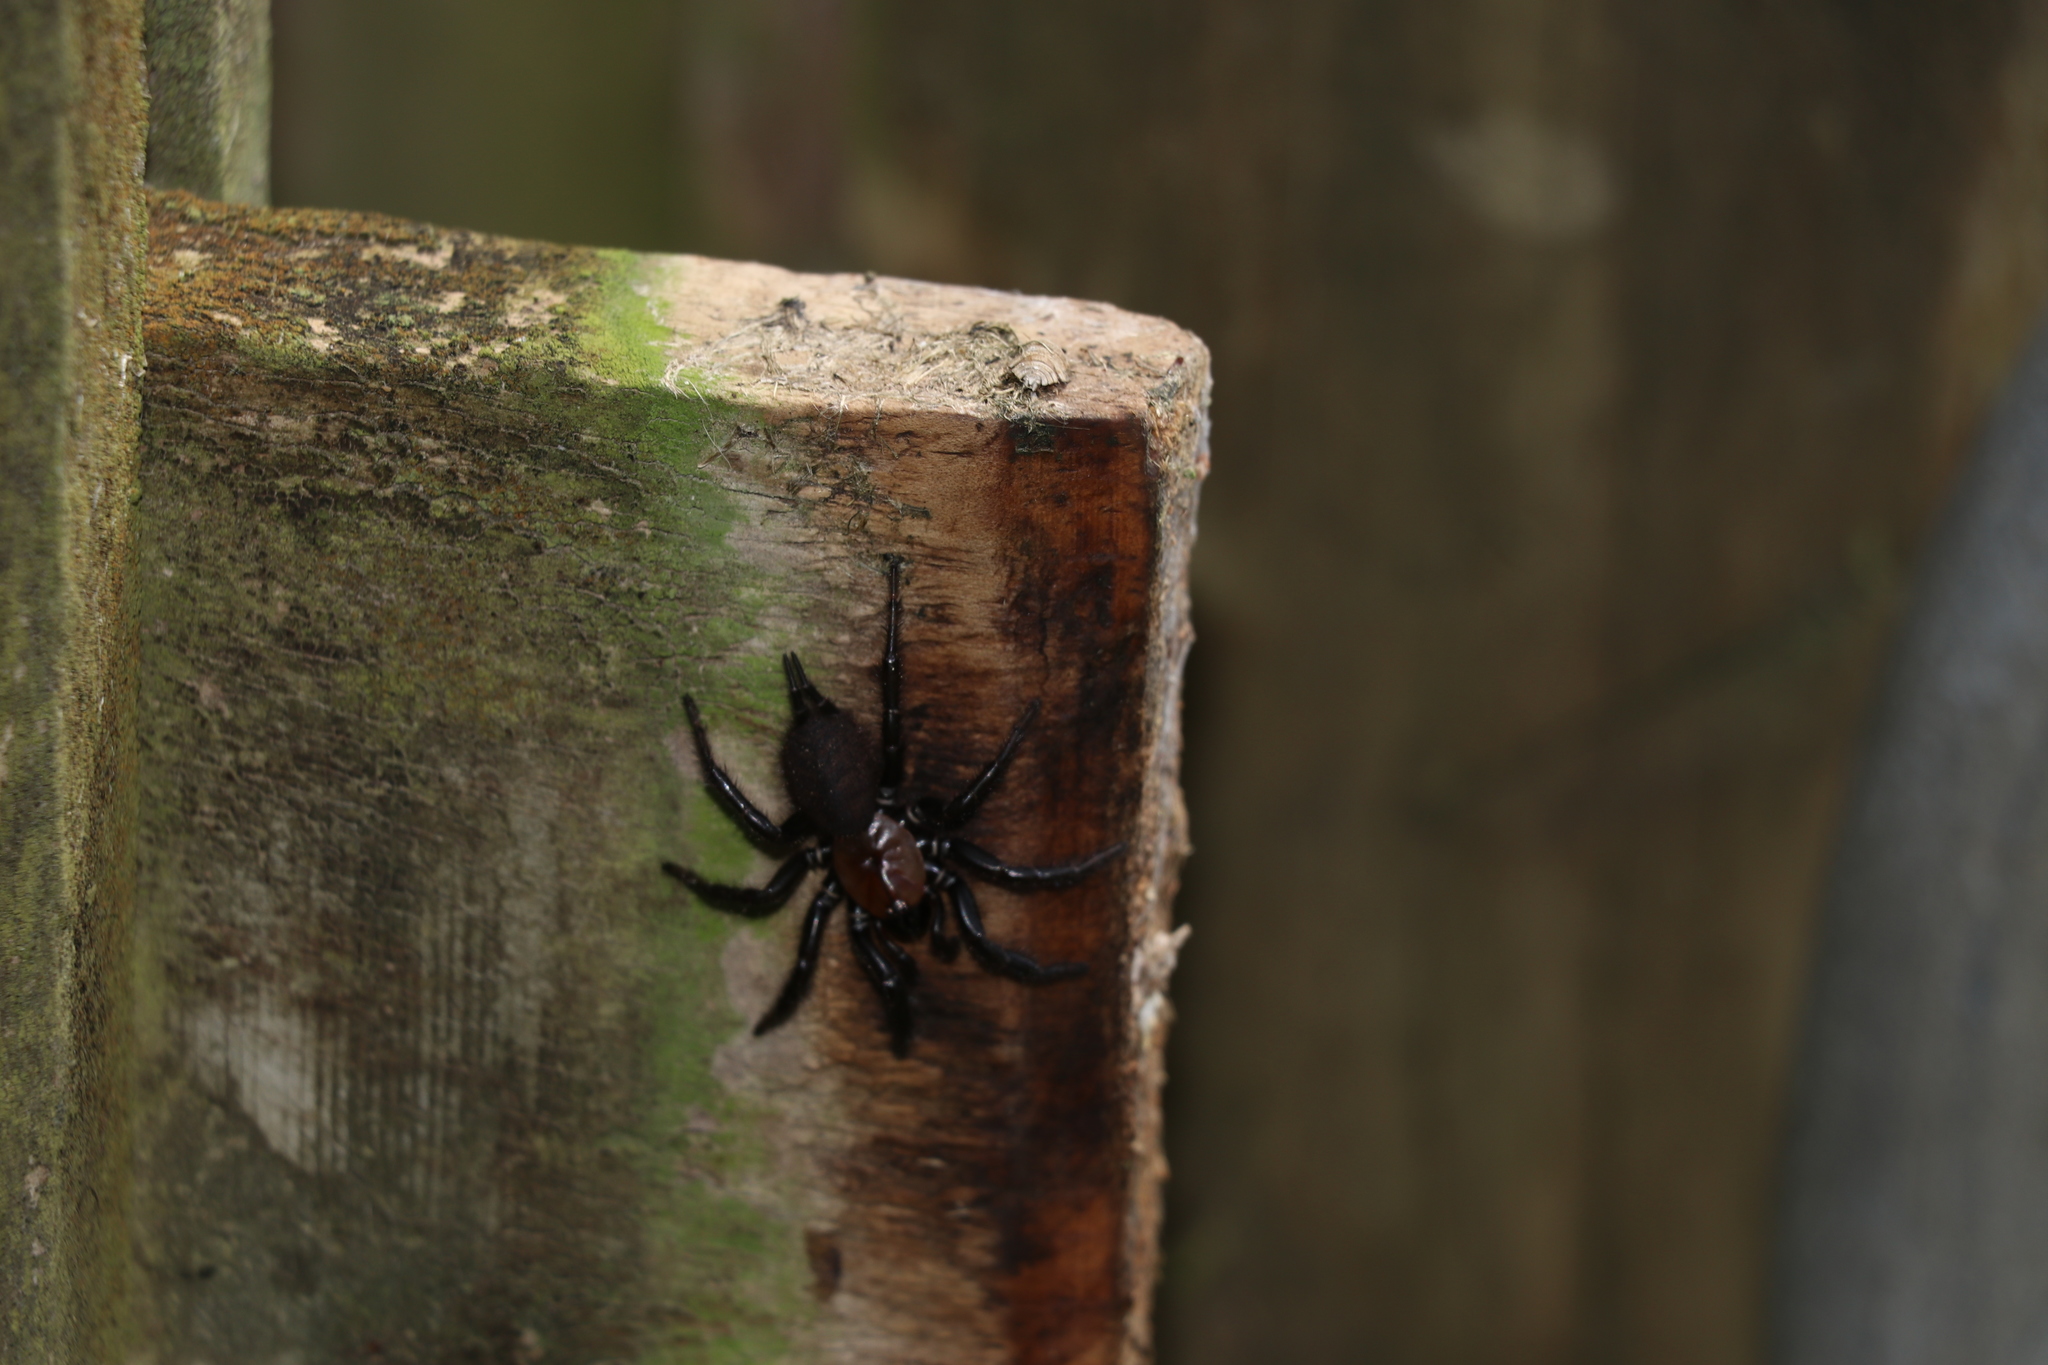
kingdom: Animalia
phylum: Arthropoda
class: Arachnida
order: Araneae
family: Porrhothelidae
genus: Porrhothele
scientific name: Porrhothele antipodiana
